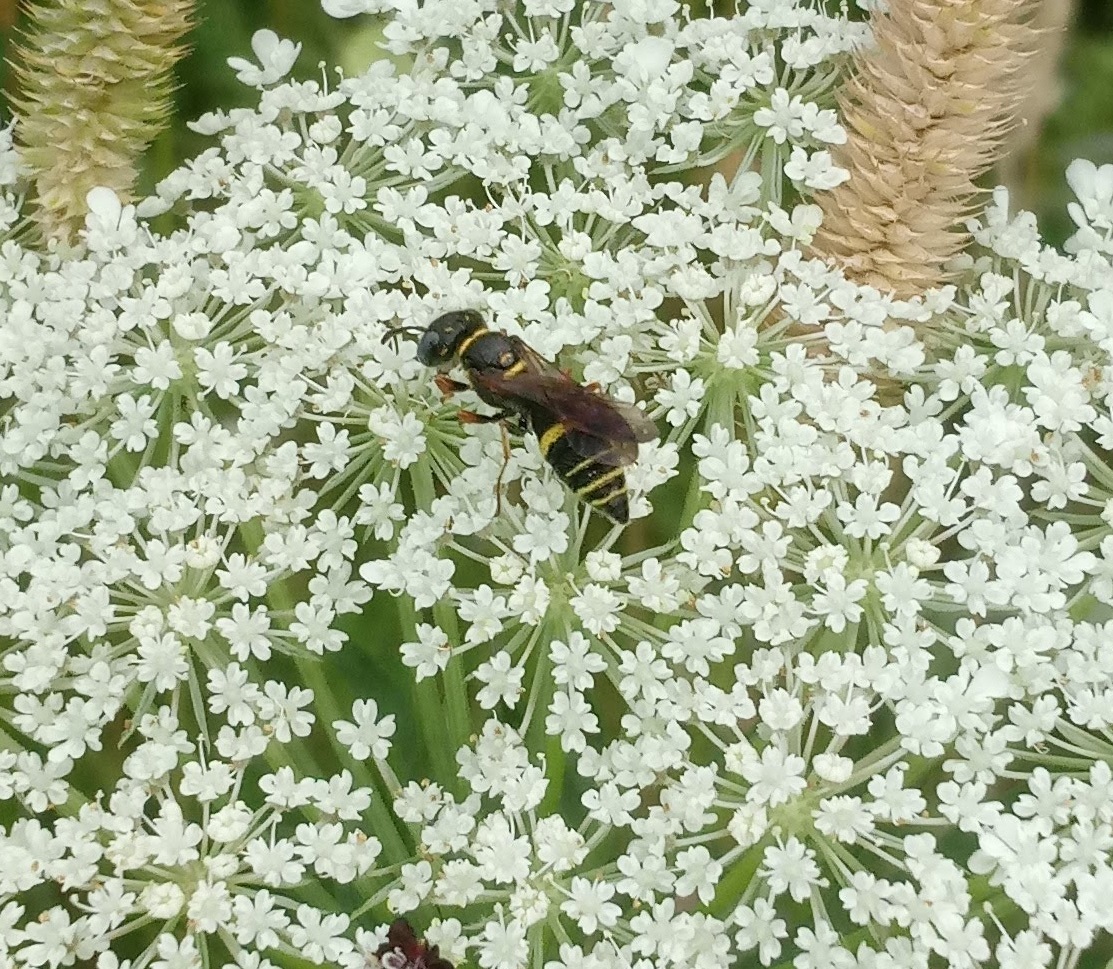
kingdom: Animalia
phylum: Arthropoda
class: Insecta
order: Hymenoptera
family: Crabronidae
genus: Philanthus
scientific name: Philanthus gibbosus
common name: Humped beewolf
